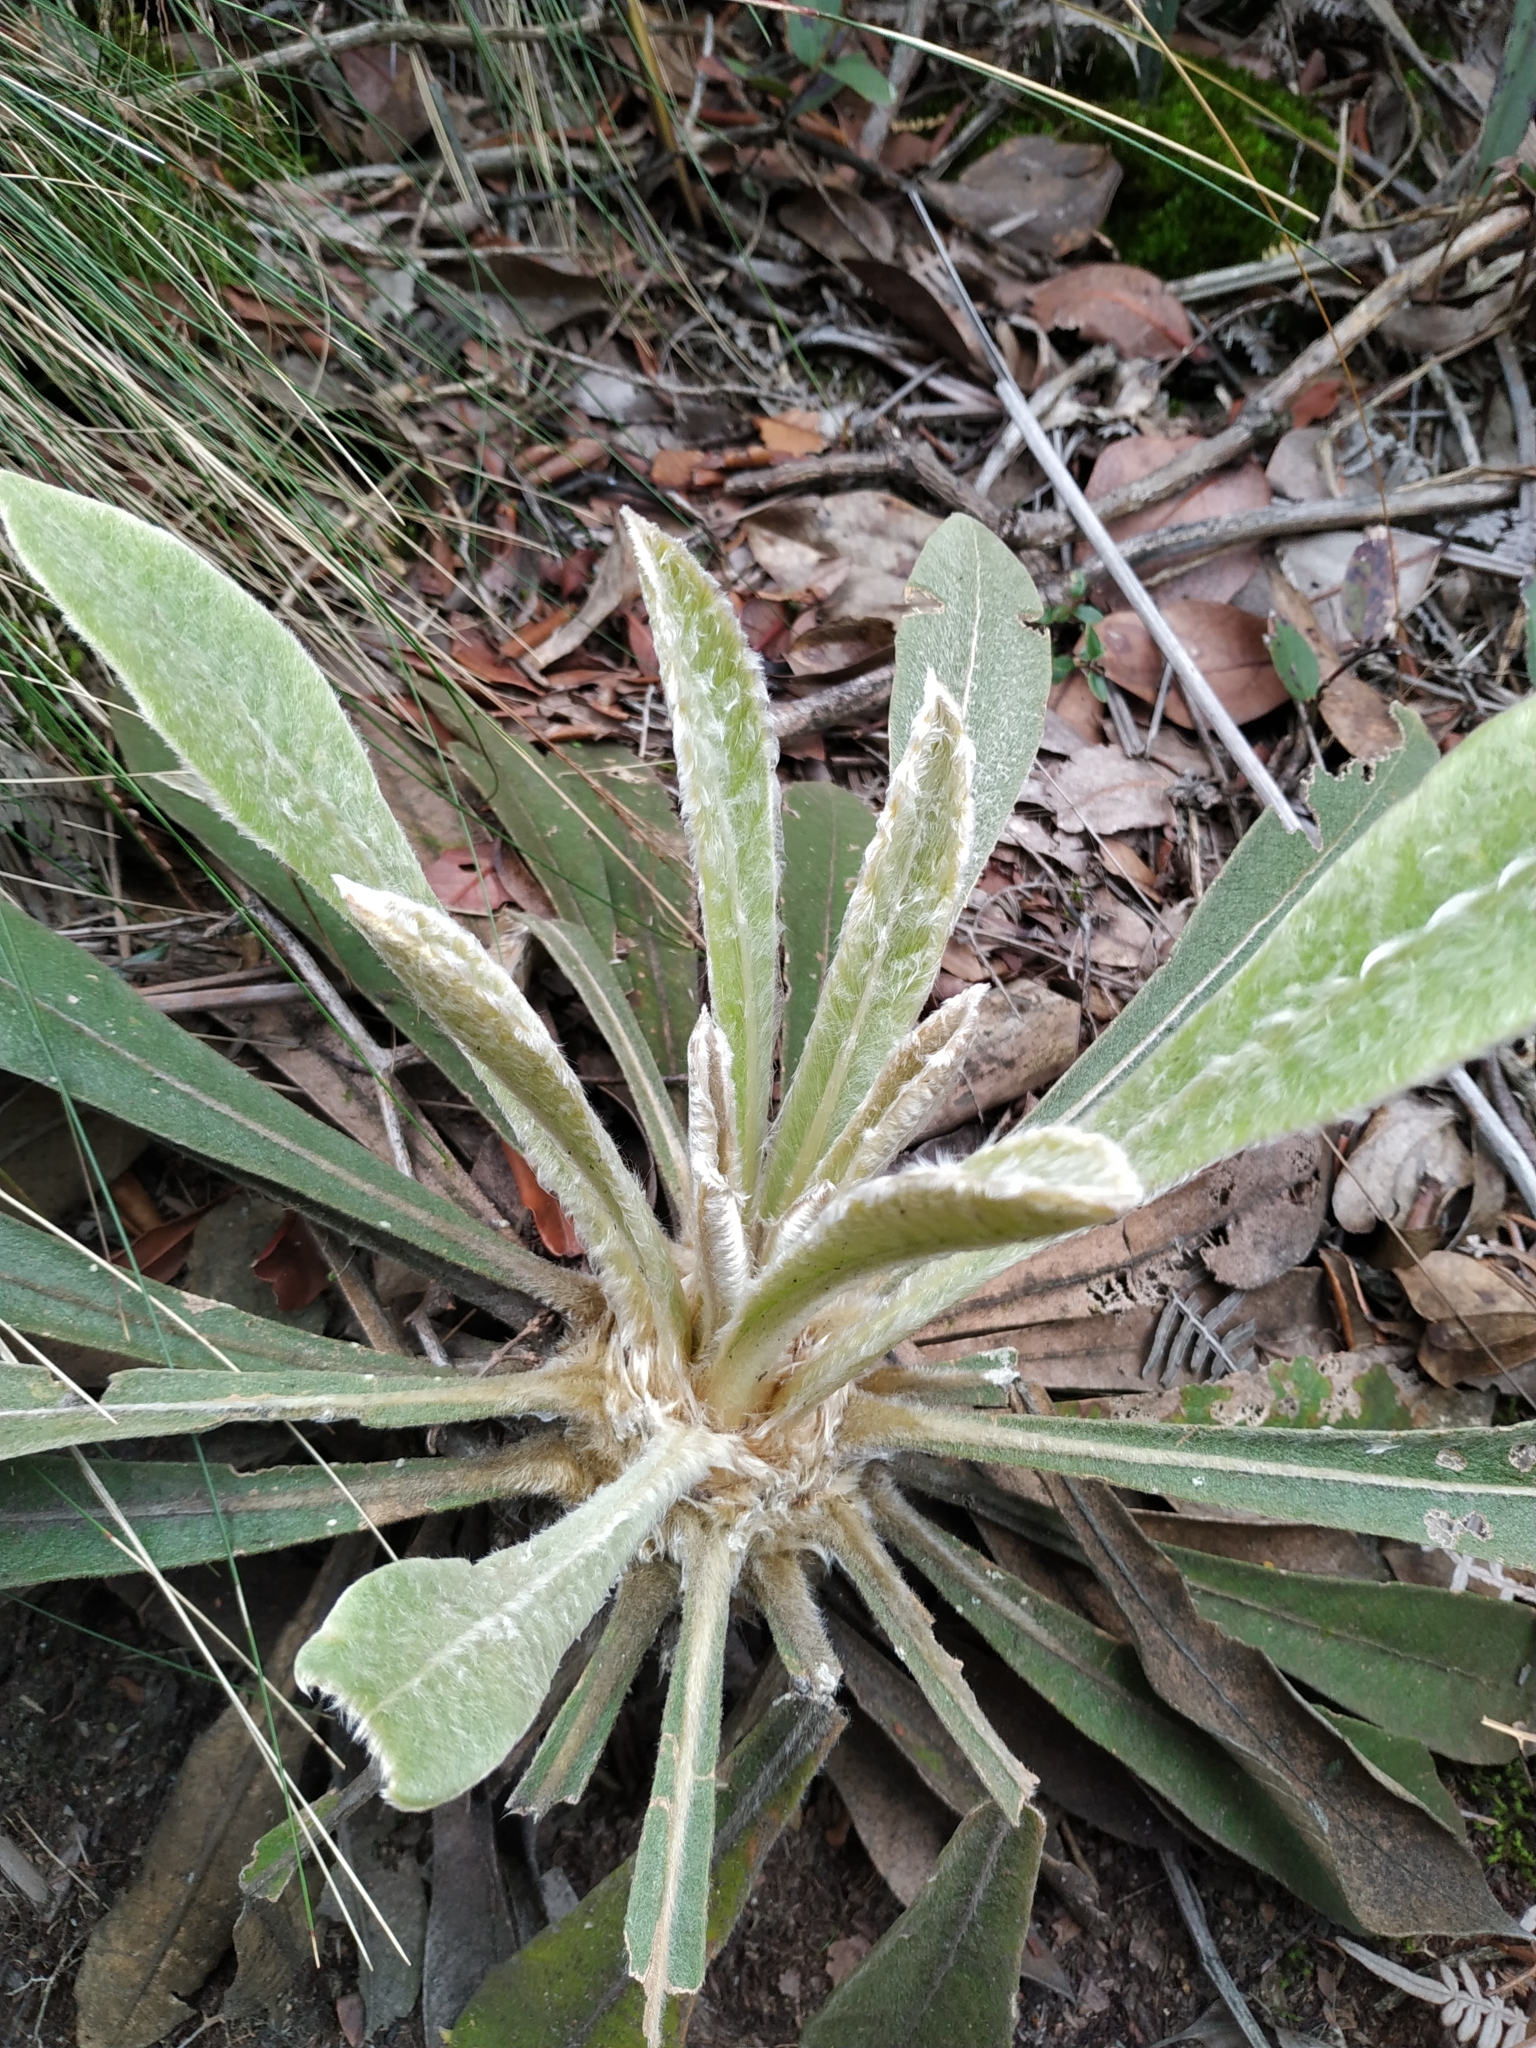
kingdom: Plantae
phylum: Tracheophyta
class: Magnoliopsida
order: Asterales
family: Asteraceae
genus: Espeletia
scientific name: Espeletia corymbosa
